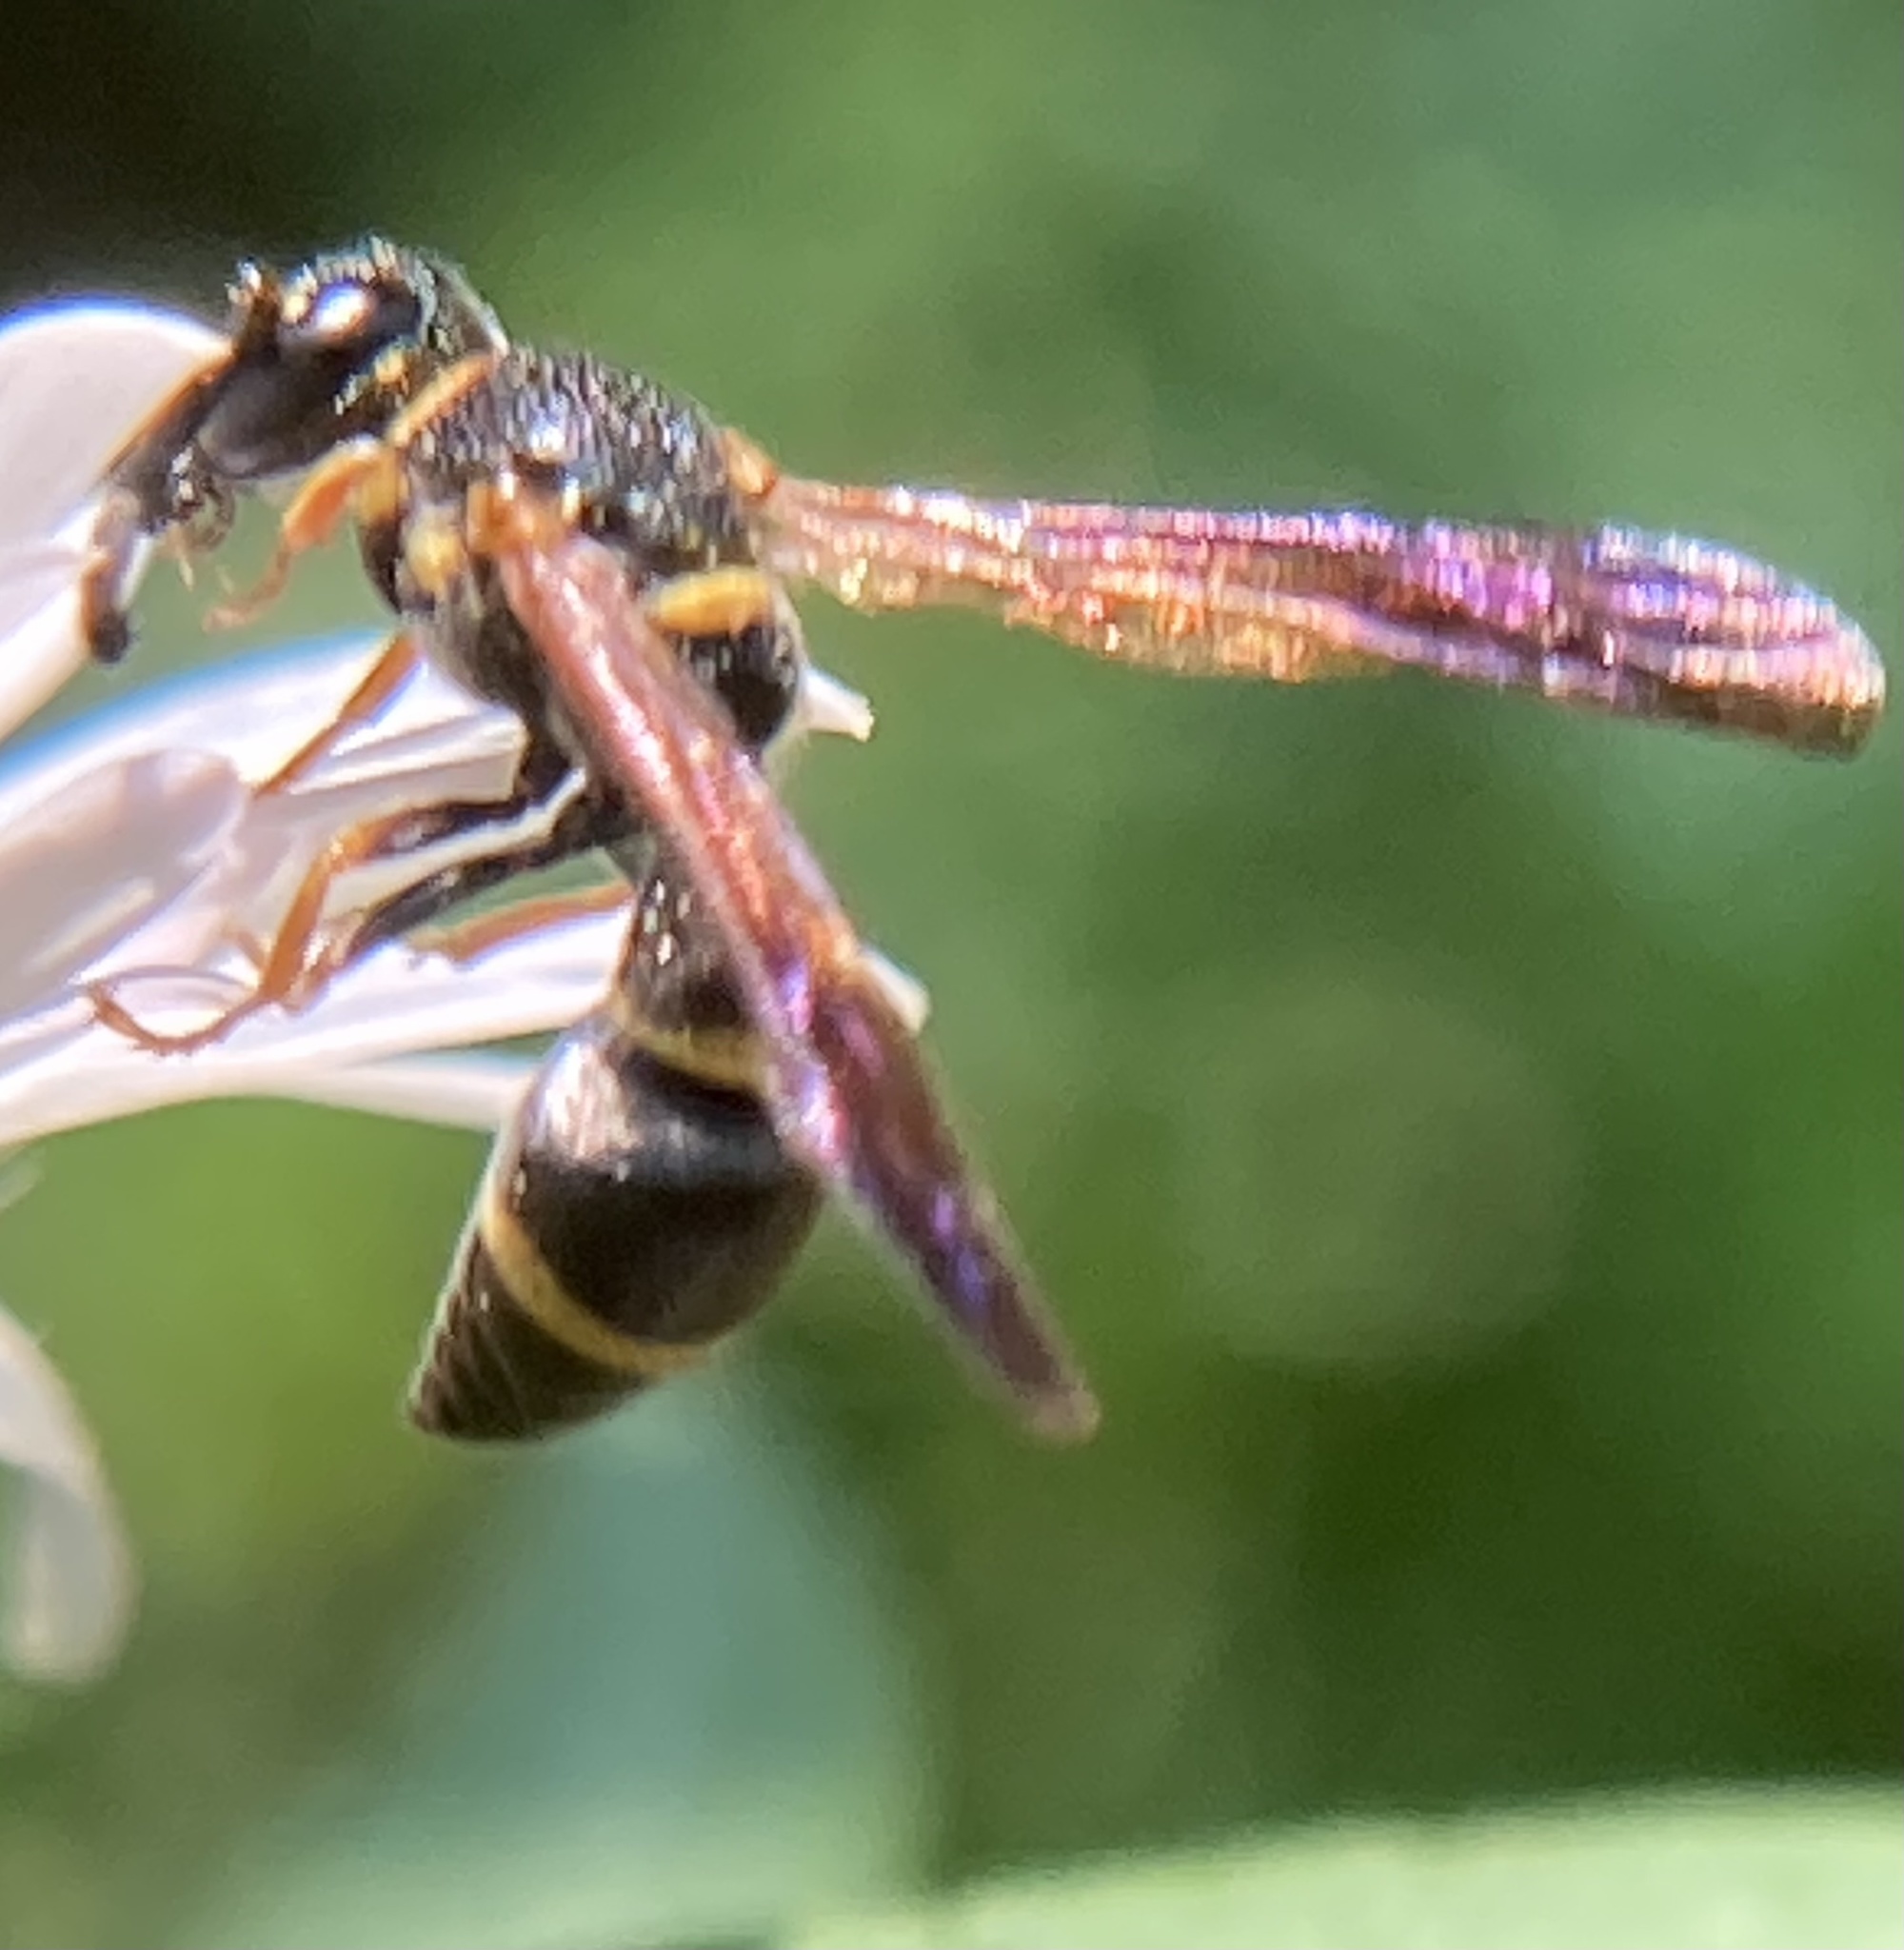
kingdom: Animalia
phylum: Arthropoda
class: Insecta
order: Hymenoptera
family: Eumenidae
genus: Parancistrocerus
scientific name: Parancistrocerus perennis
